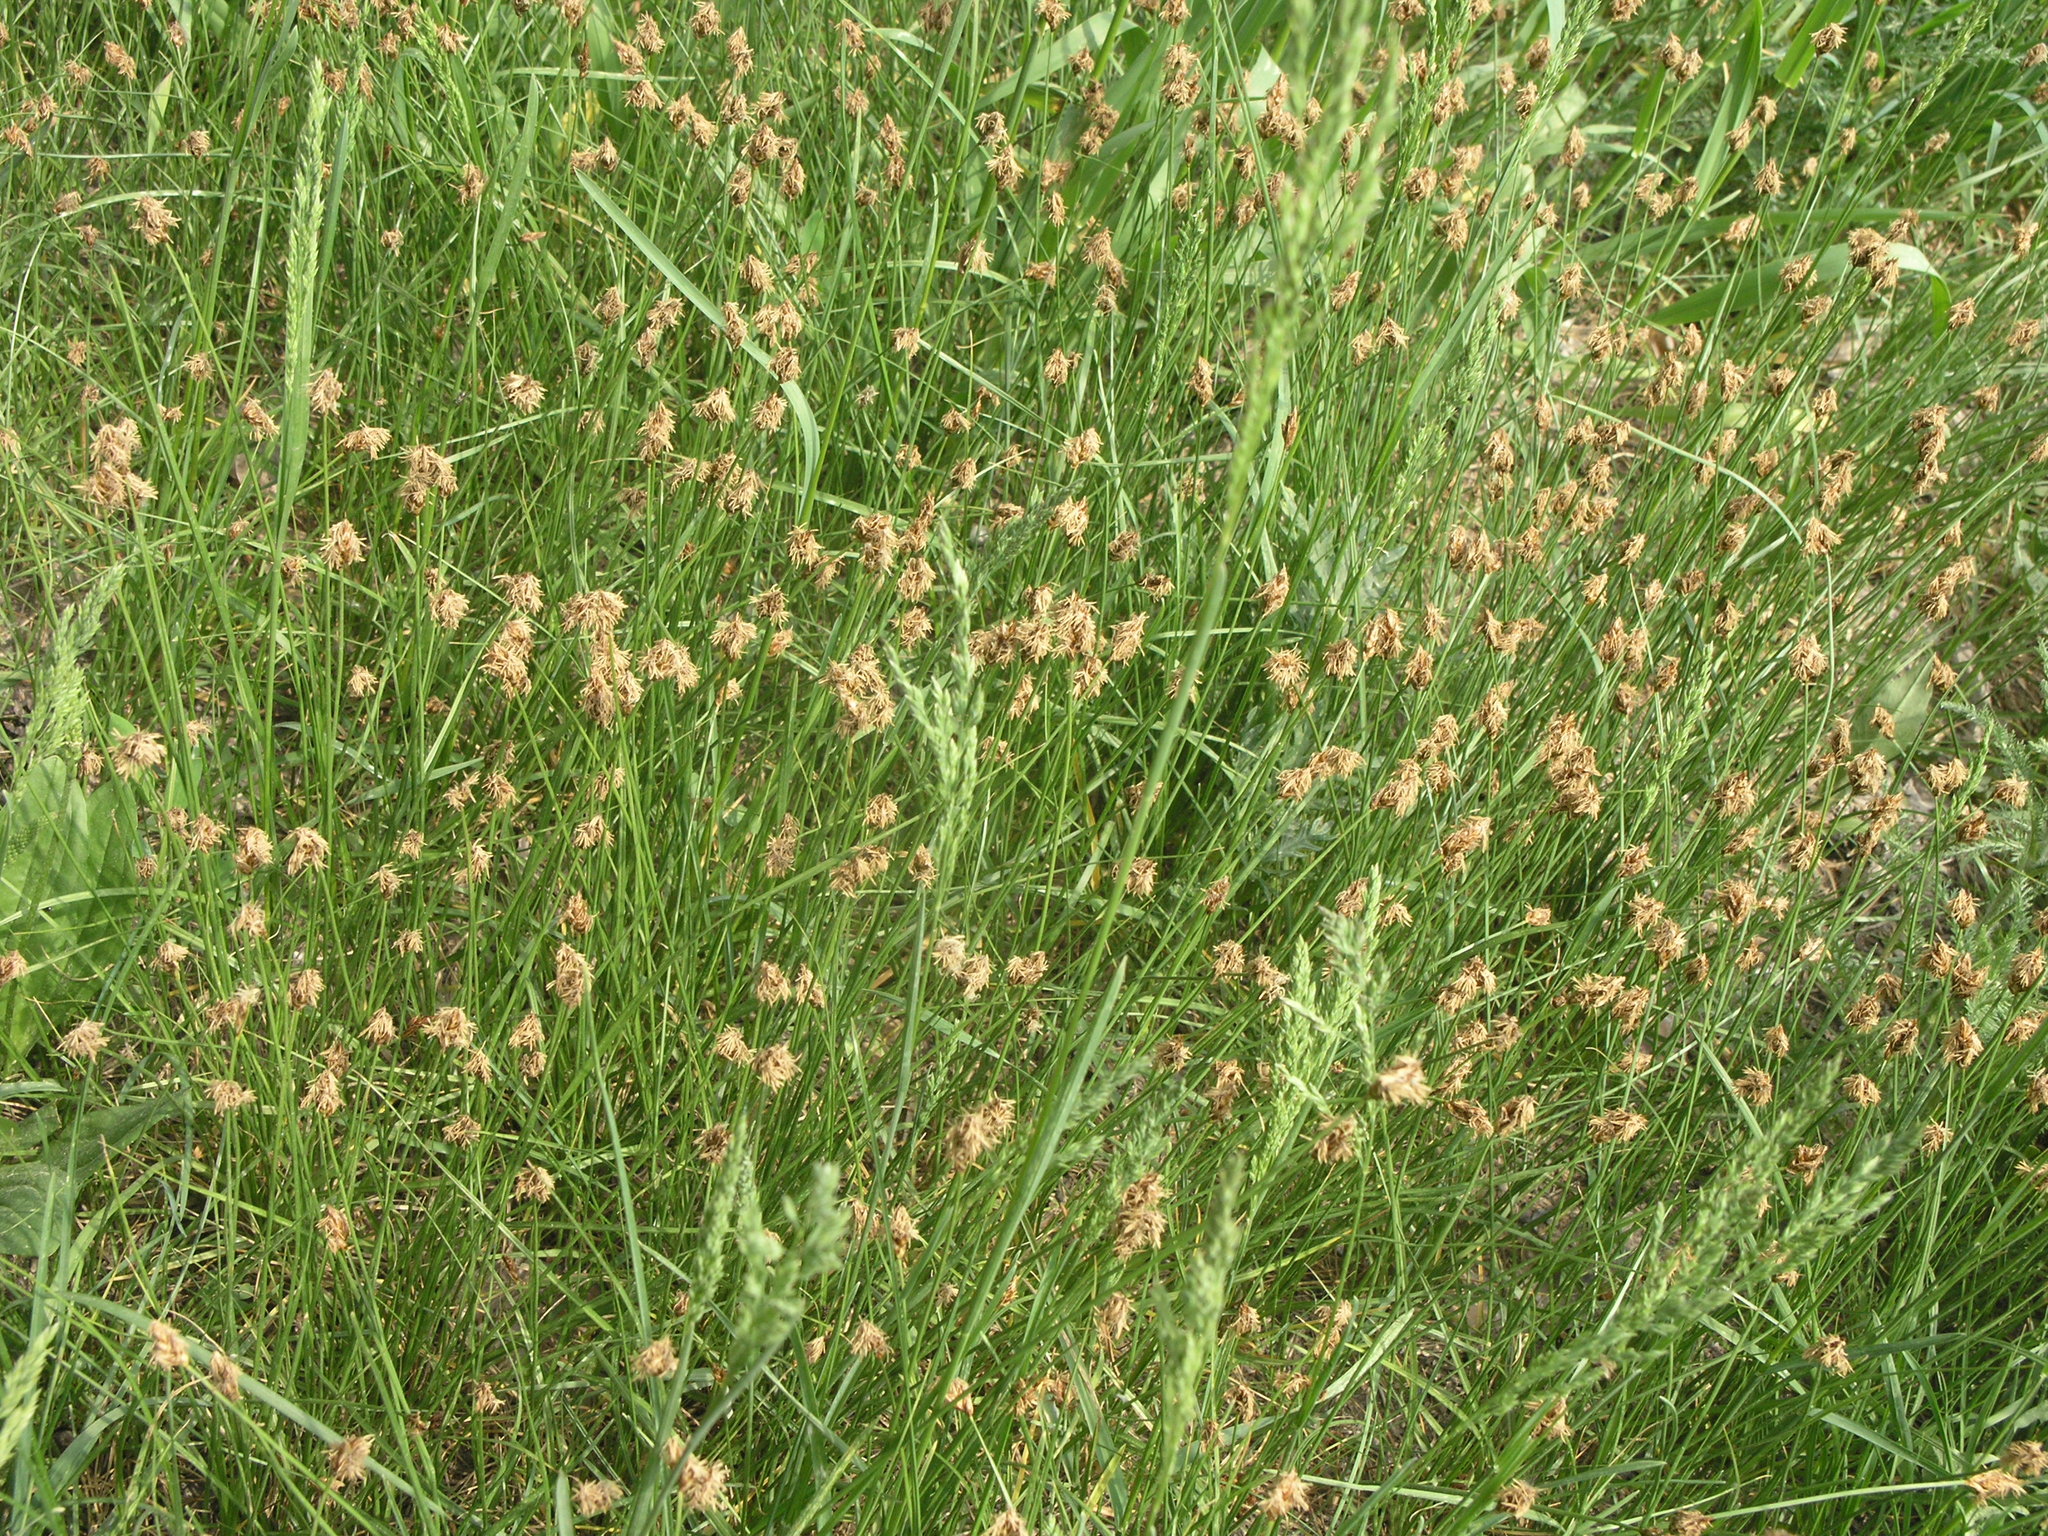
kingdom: Plantae
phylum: Tracheophyta
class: Liliopsida
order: Poales
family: Cyperaceae
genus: Carex
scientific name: Carex praecox
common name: Early sedge
